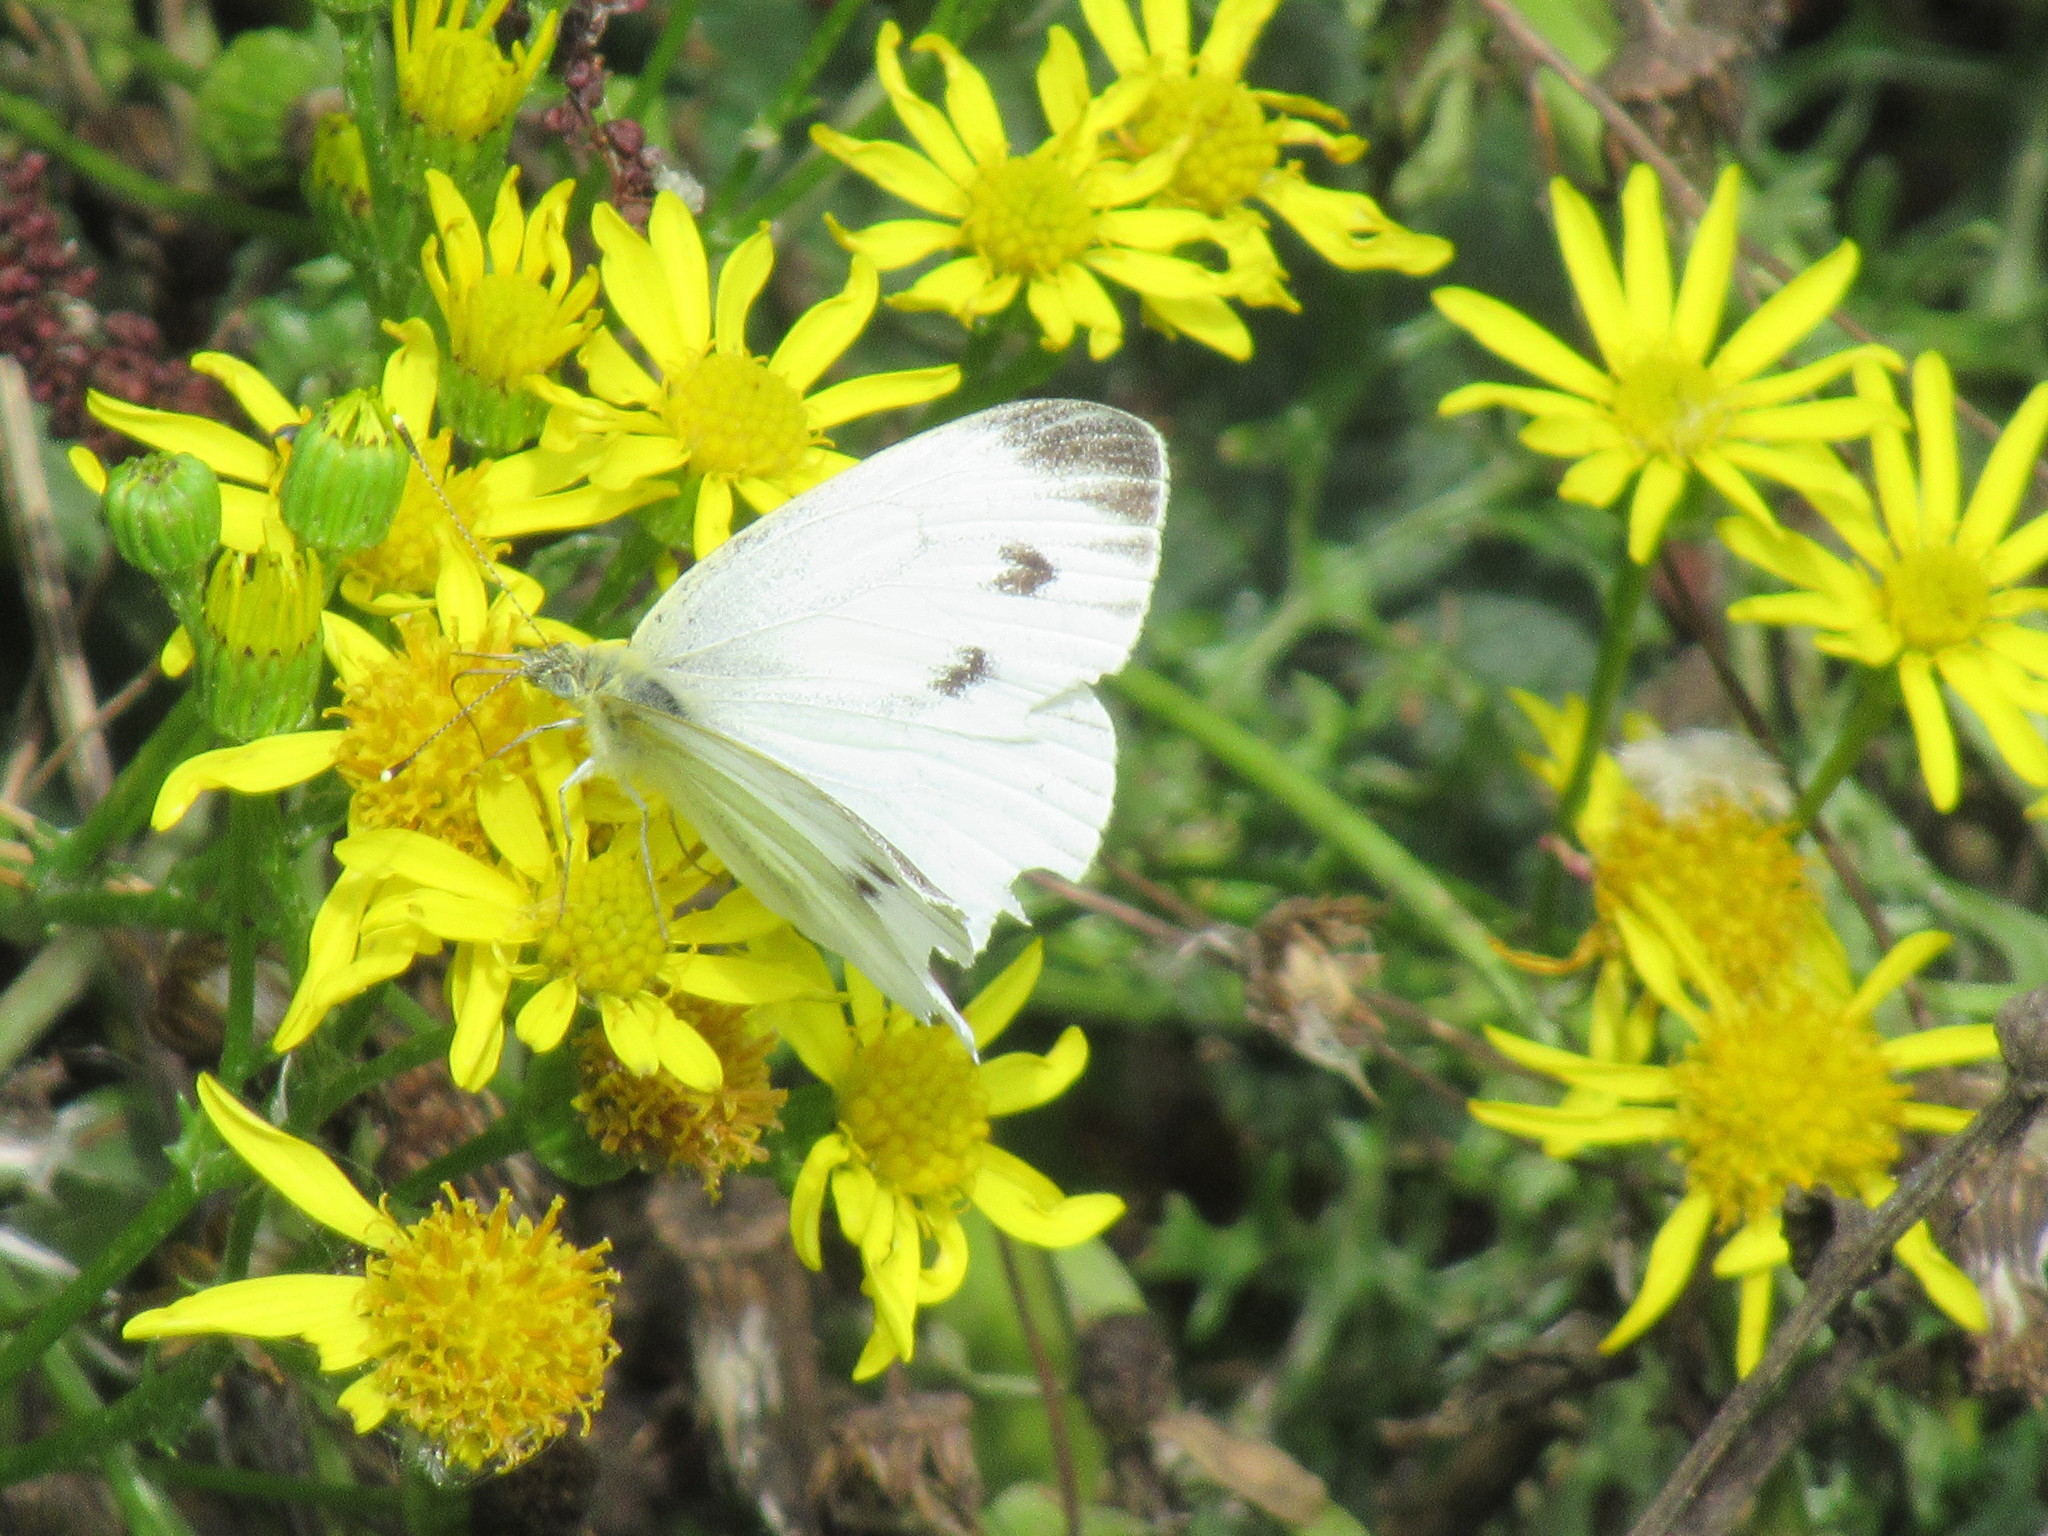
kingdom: Animalia
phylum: Arthropoda
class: Insecta
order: Lepidoptera
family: Pieridae
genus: Pieris
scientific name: Pieris napi
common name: Green-veined white
